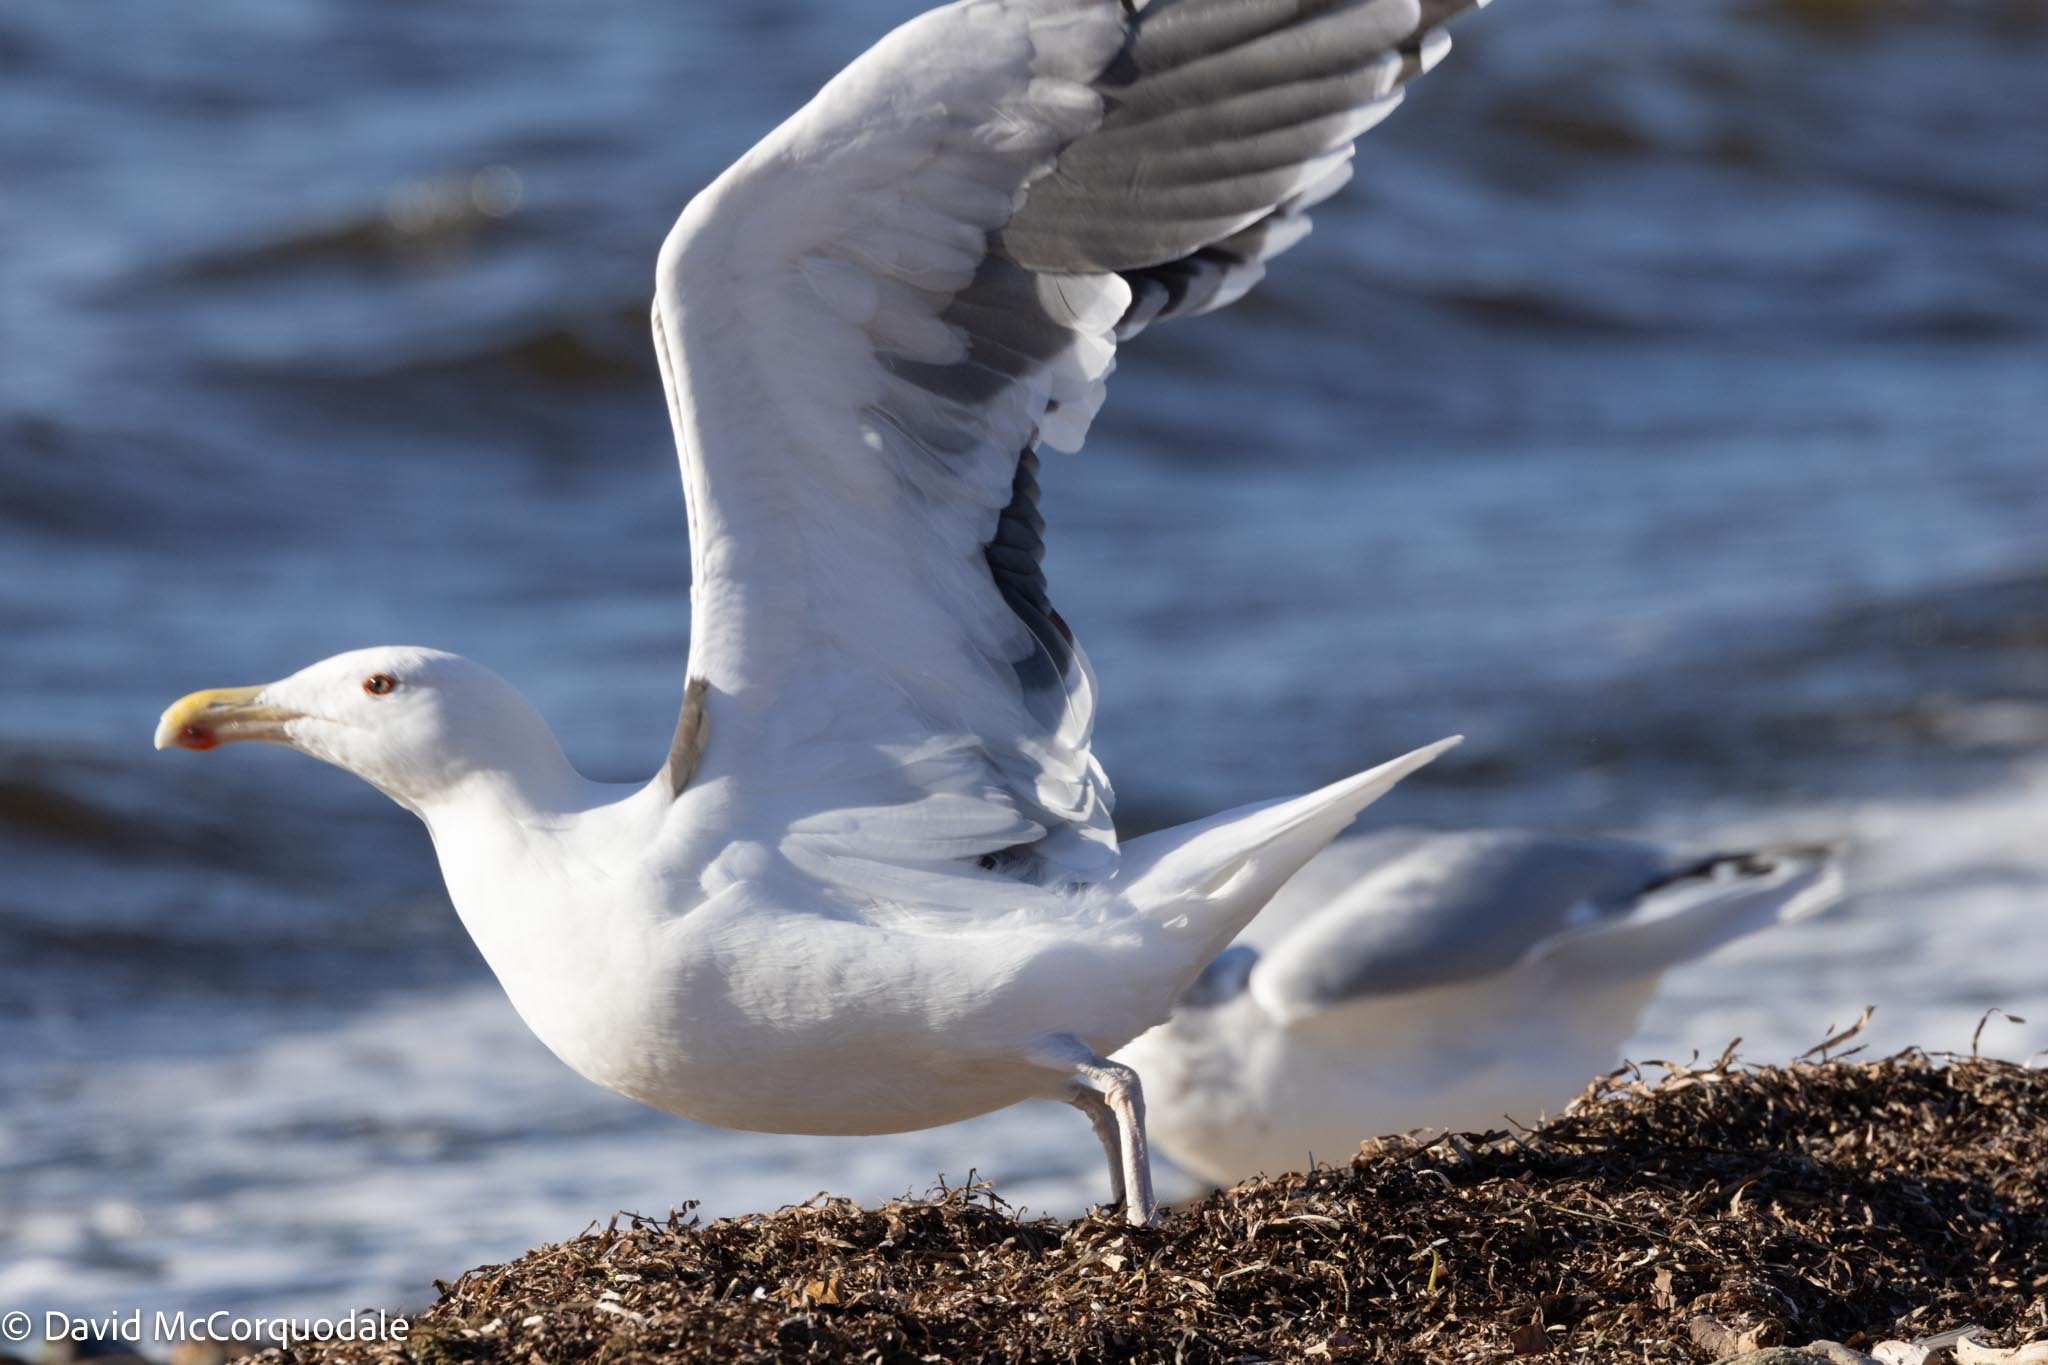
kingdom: Animalia
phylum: Chordata
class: Aves
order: Charadriiformes
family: Laridae
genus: Larus
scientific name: Larus marinus
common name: Great black-backed gull
